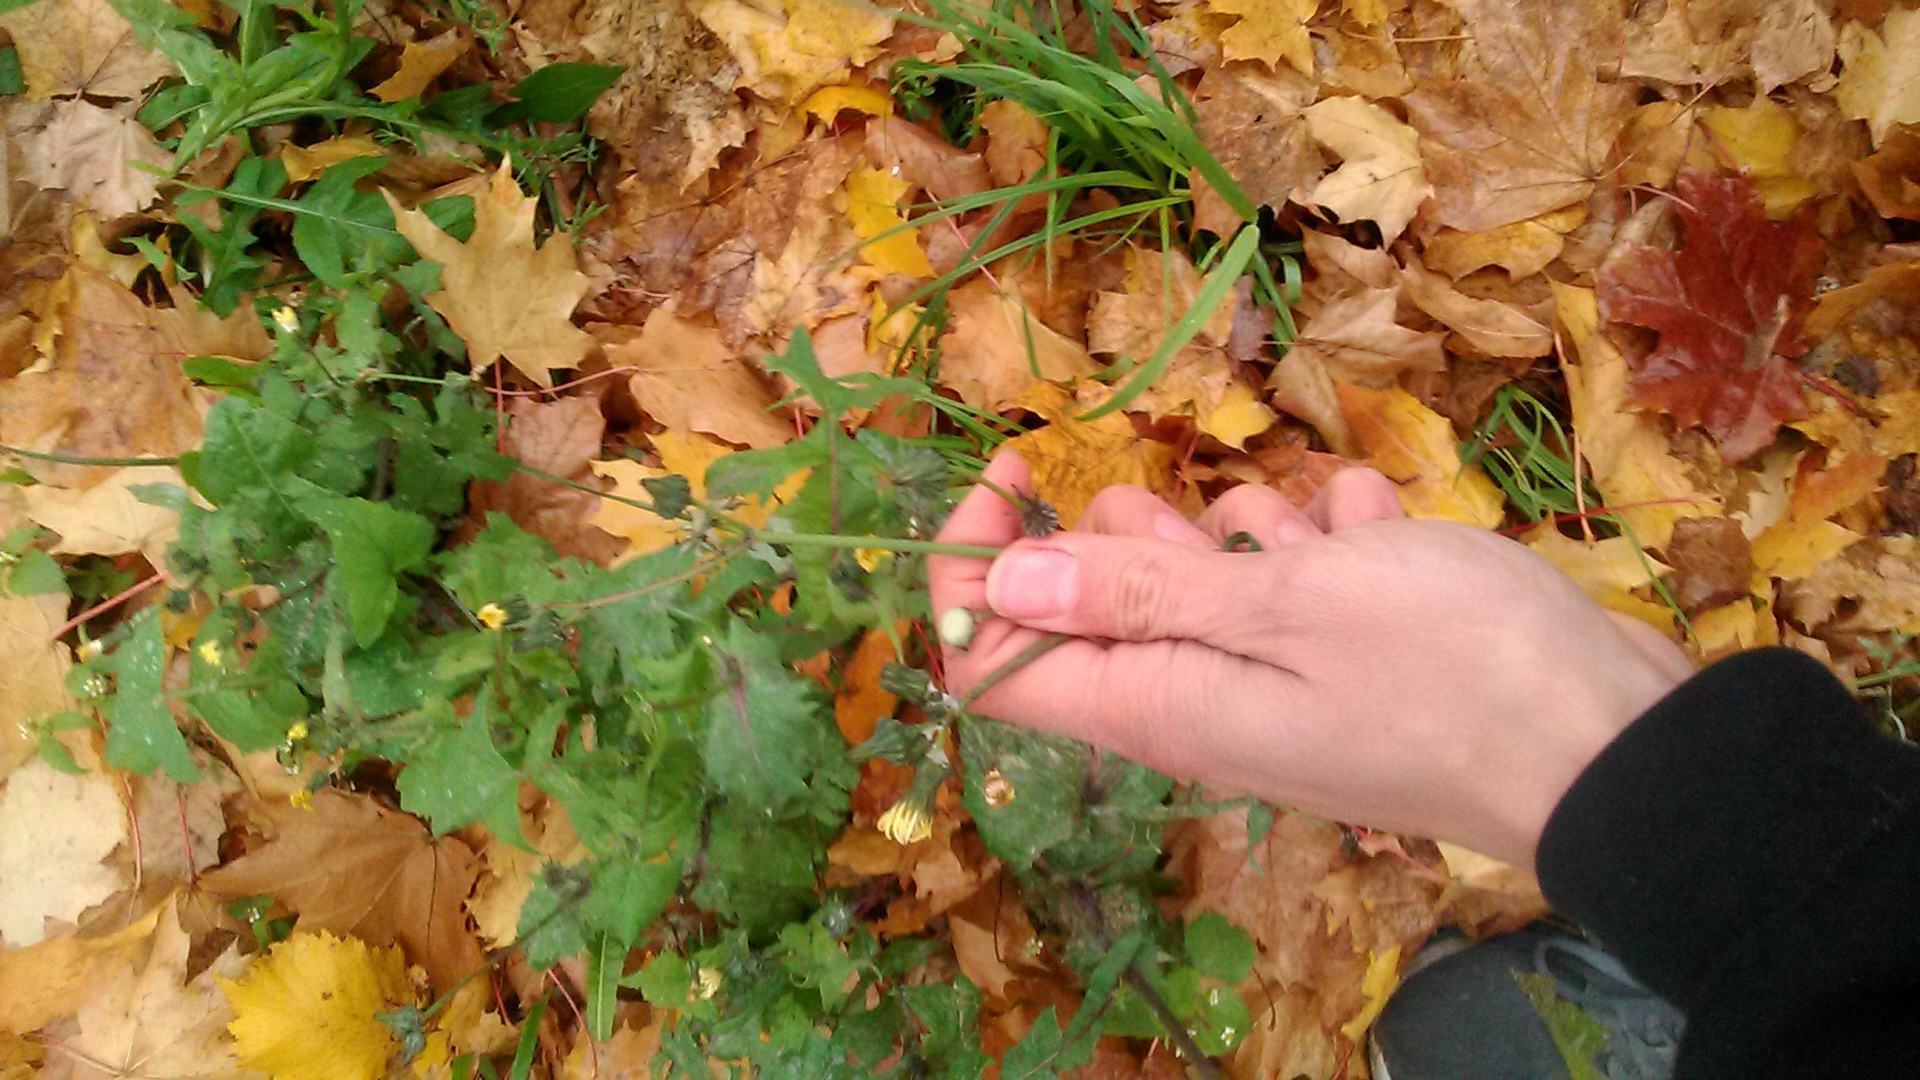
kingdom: Plantae
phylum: Tracheophyta
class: Magnoliopsida
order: Asterales
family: Asteraceae
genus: Sonchus
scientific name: Sonchus oleraceus
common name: Common sowthistle
